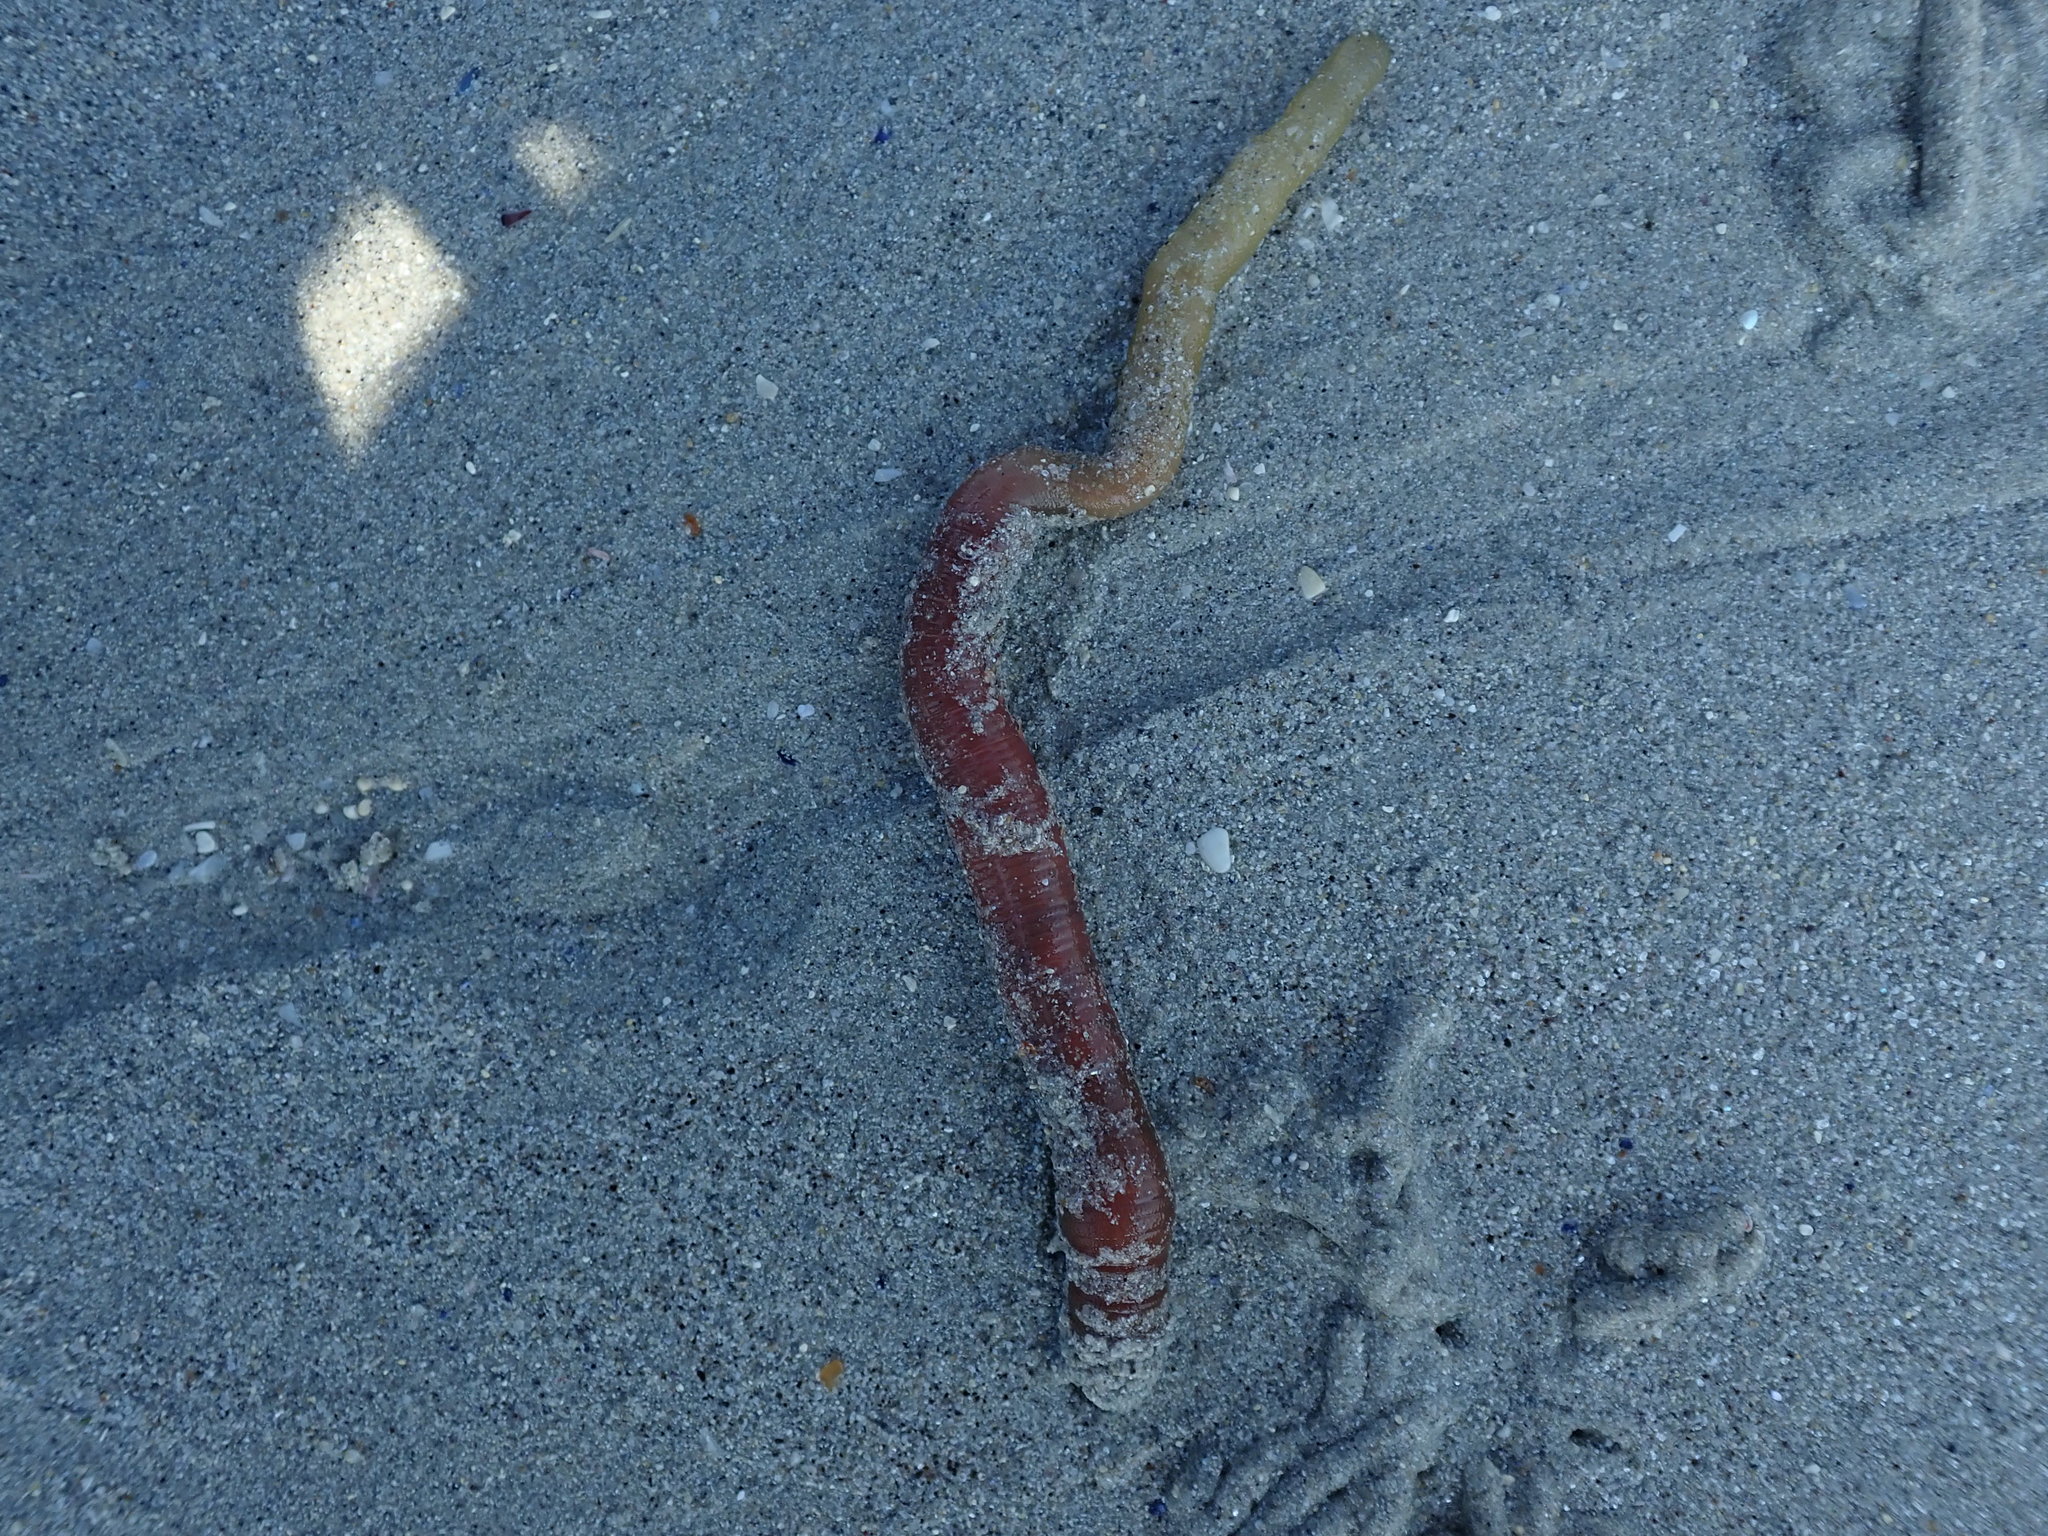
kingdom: Animalia
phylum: Annelida
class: Polychaeta
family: Arenicolidae
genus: Arenicola
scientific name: Arenicola marina
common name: Blow lugworm
